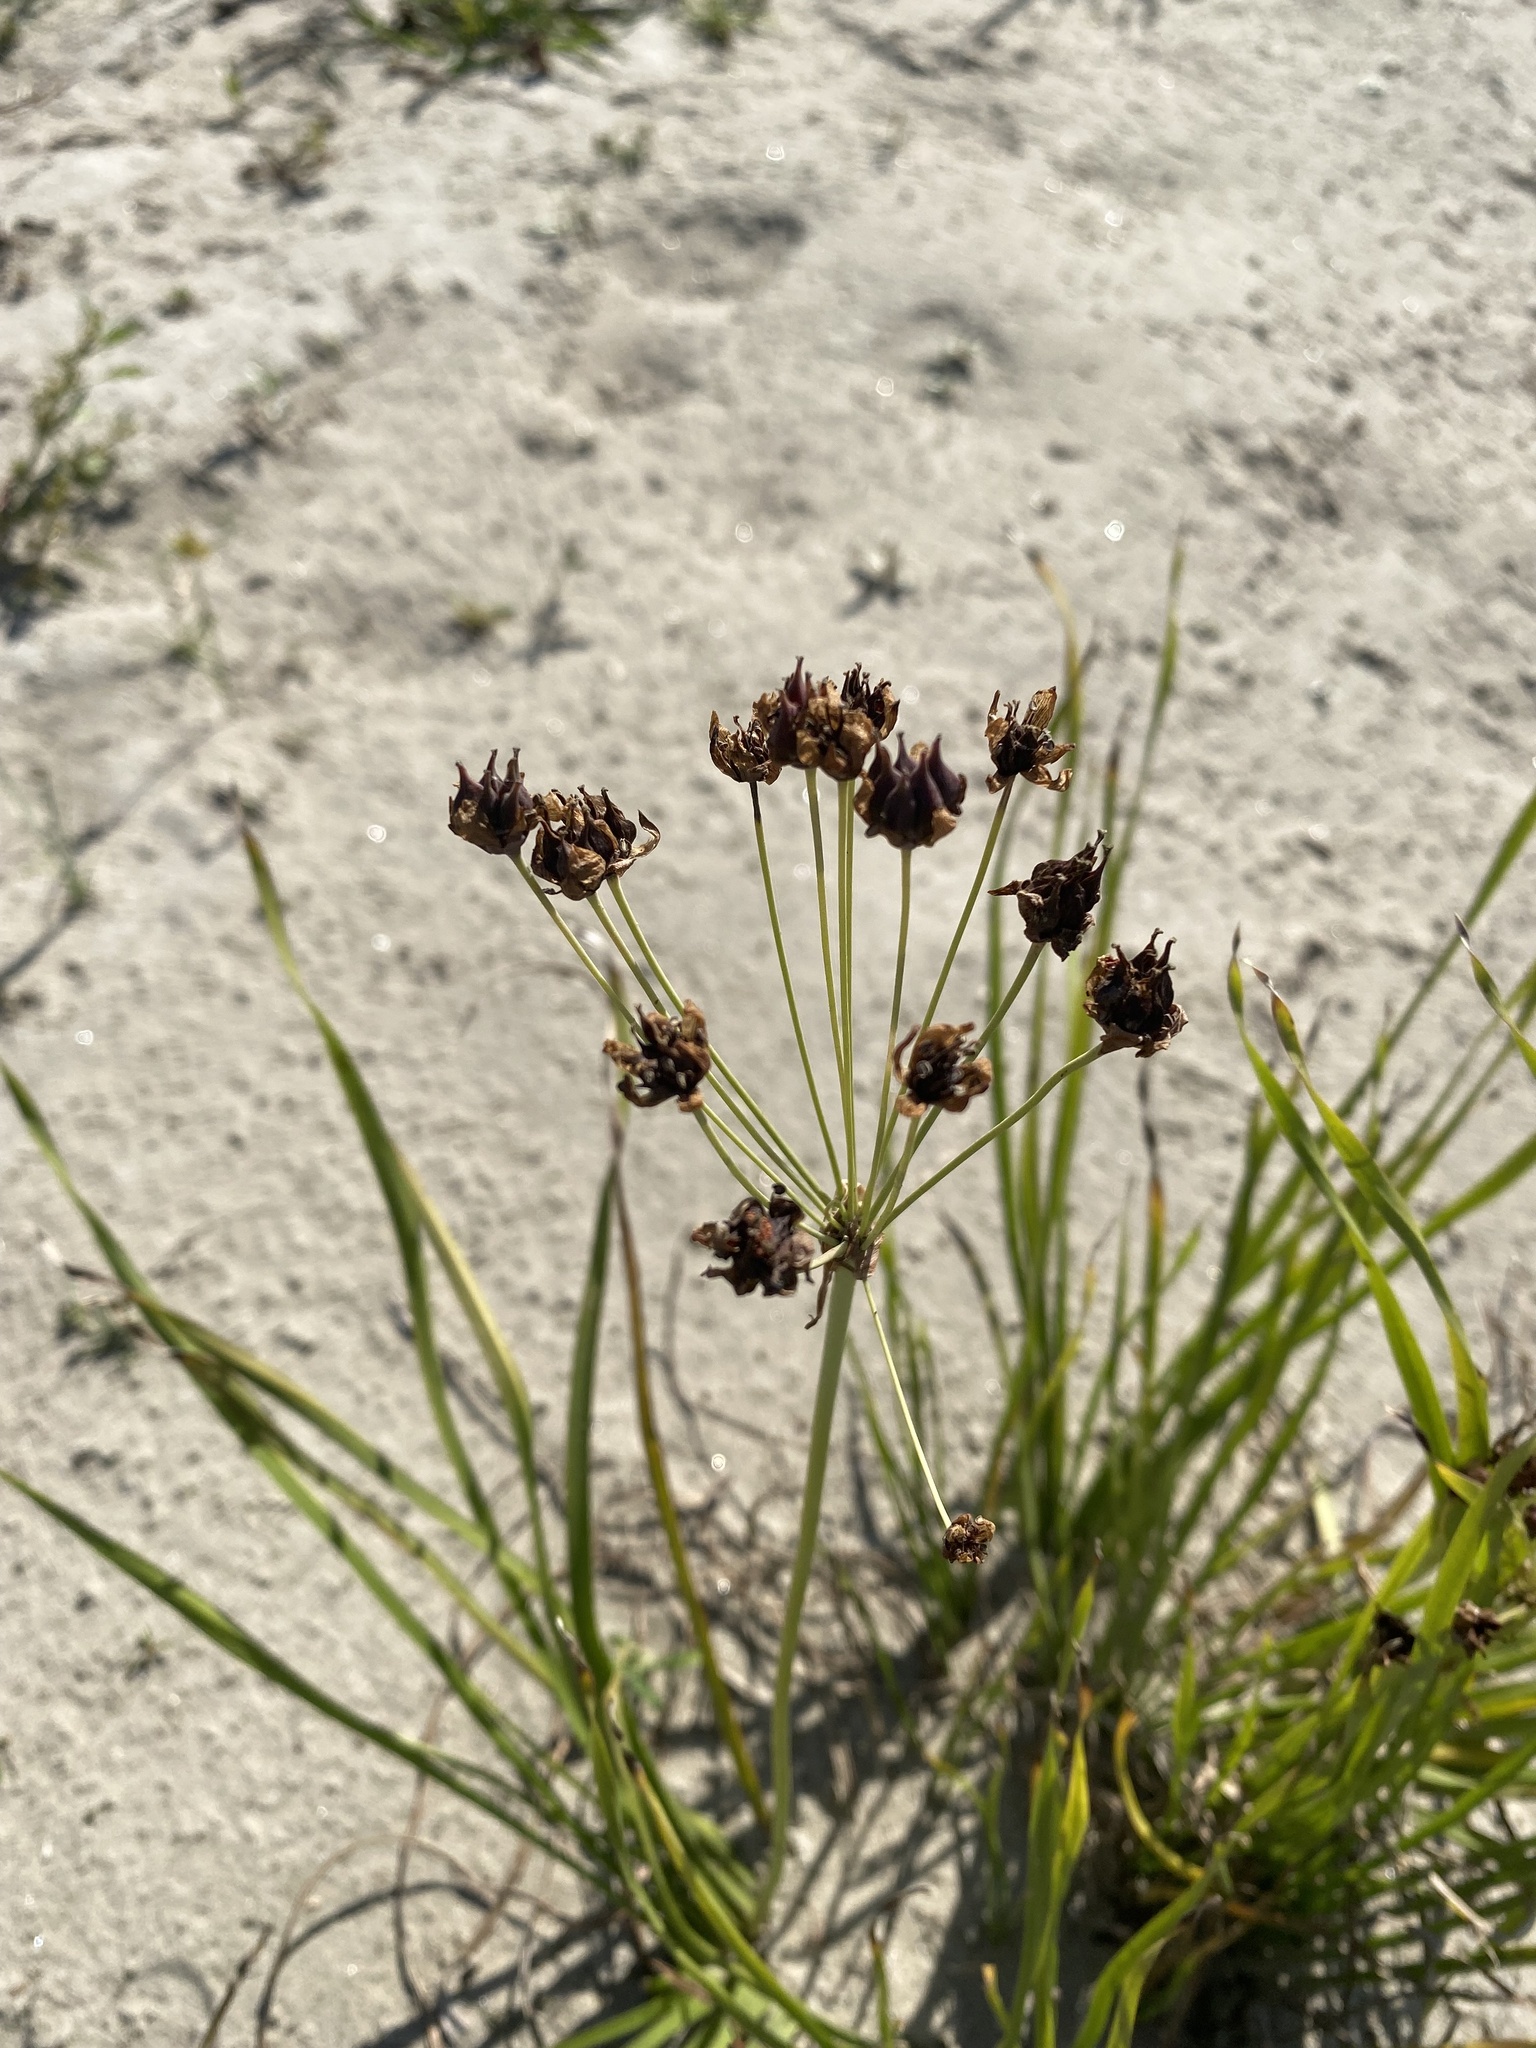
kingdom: Plantae
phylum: Tracheophyta
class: Liliopsida
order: Alismatales
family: Butomaceae
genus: Butomus
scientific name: Butomus umbellatus
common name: Flowering-rush
